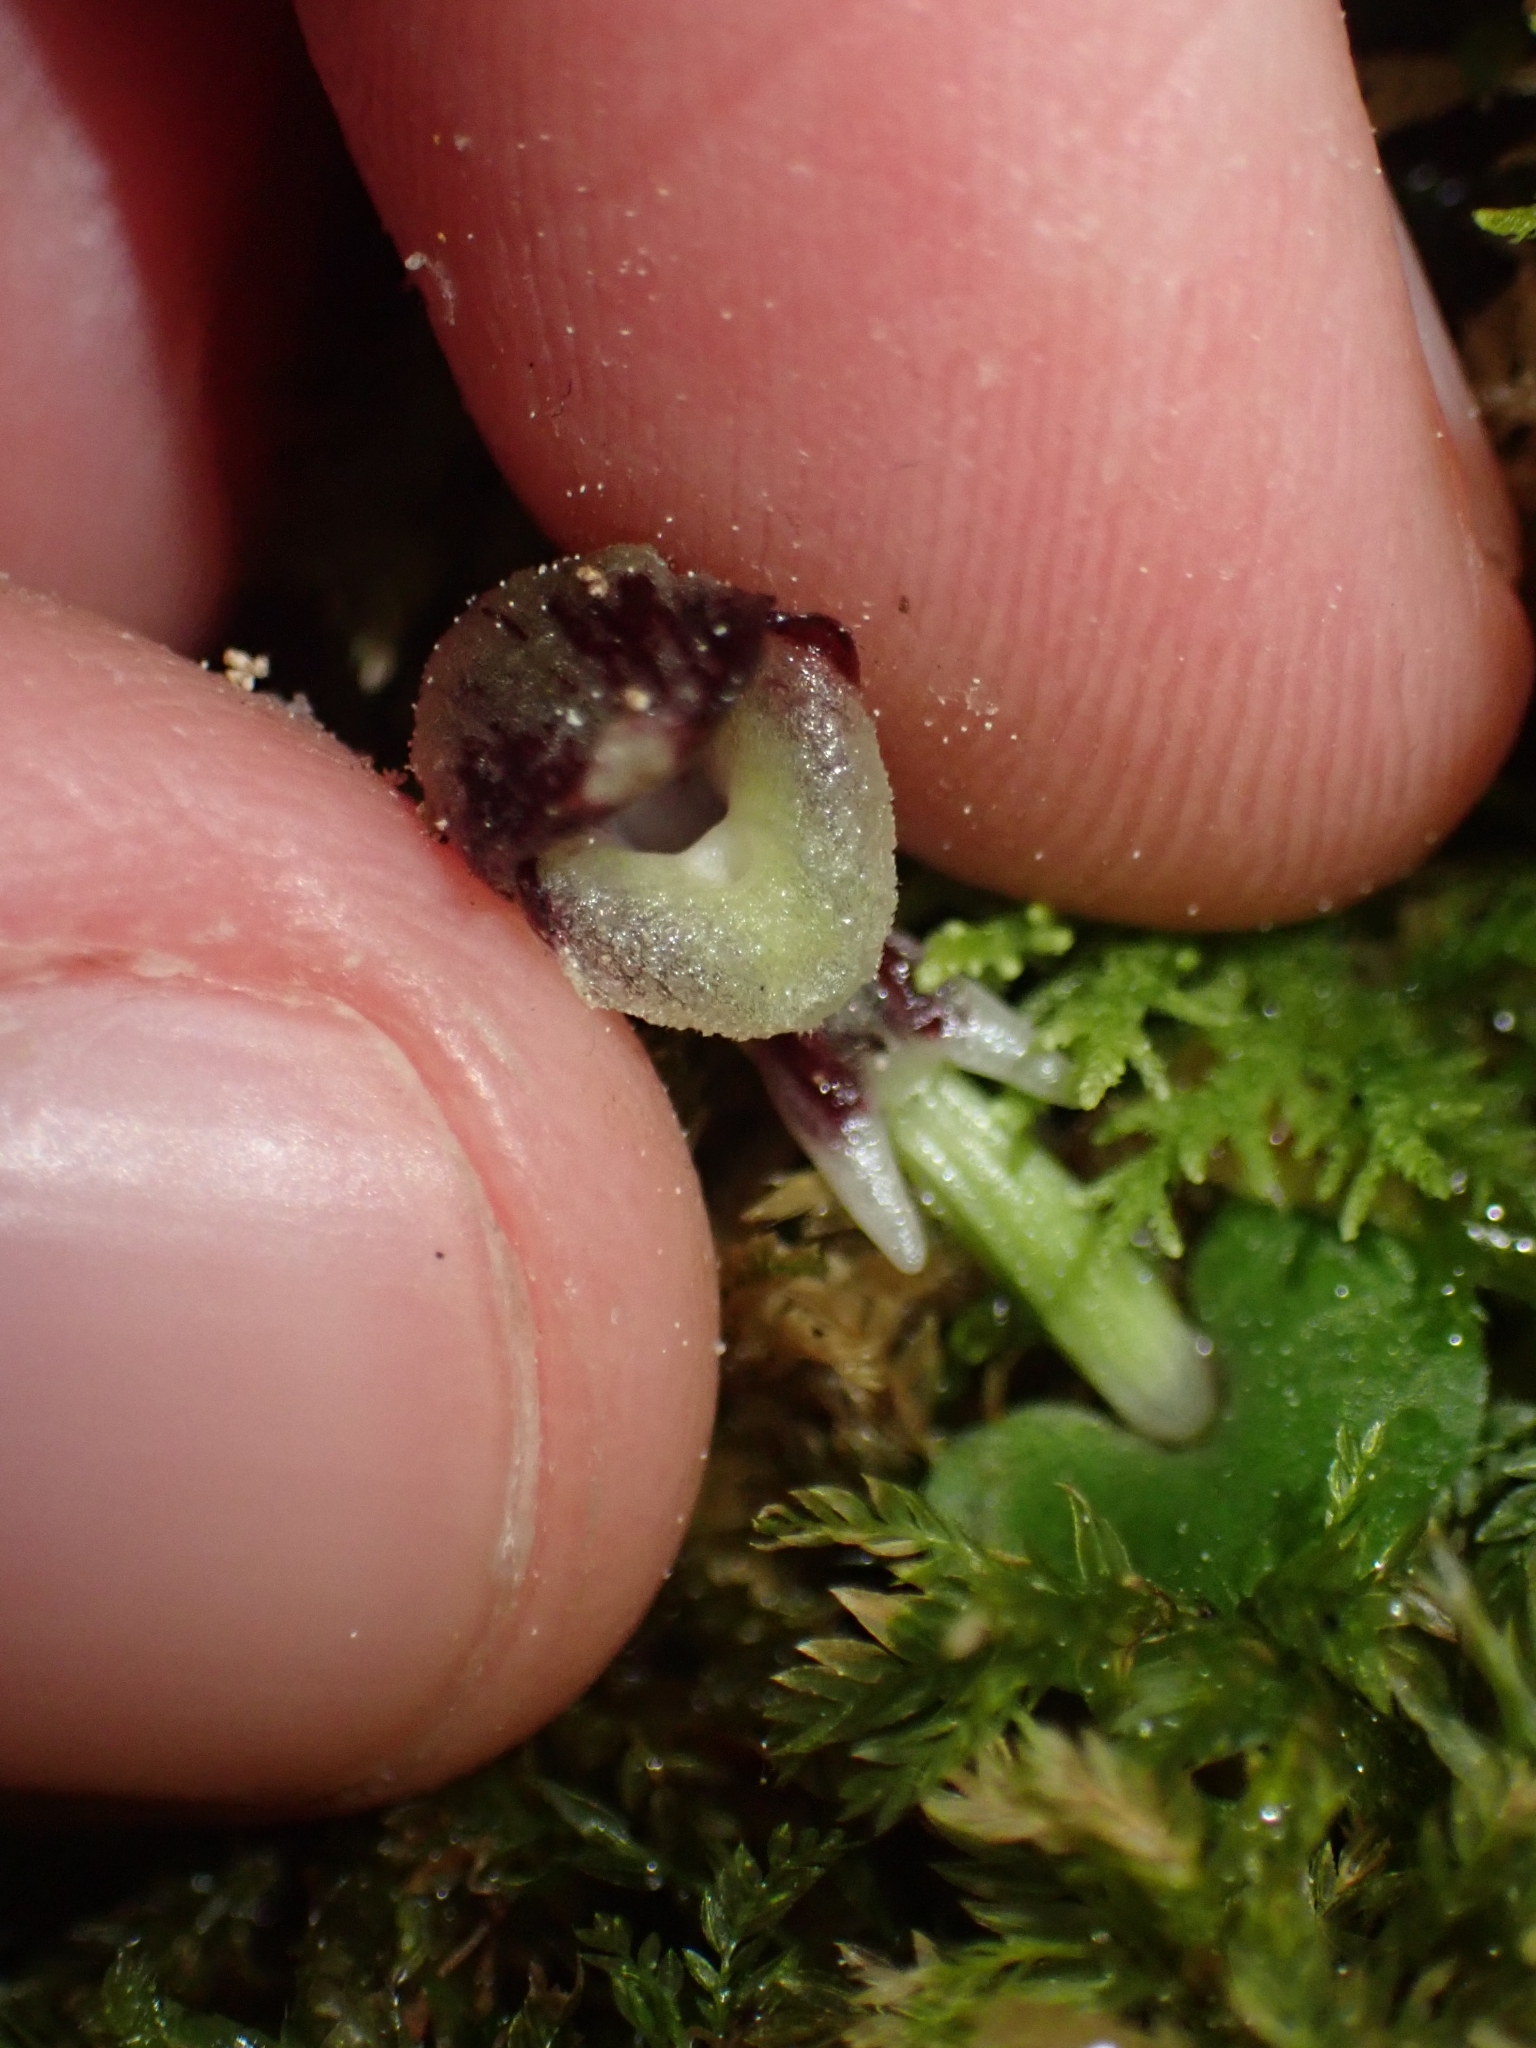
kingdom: Plantae
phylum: Tracheophyta
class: Liliopsida
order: Asparagales
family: Orchidaceae
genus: Corybas
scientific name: Corybas cheesemanii
